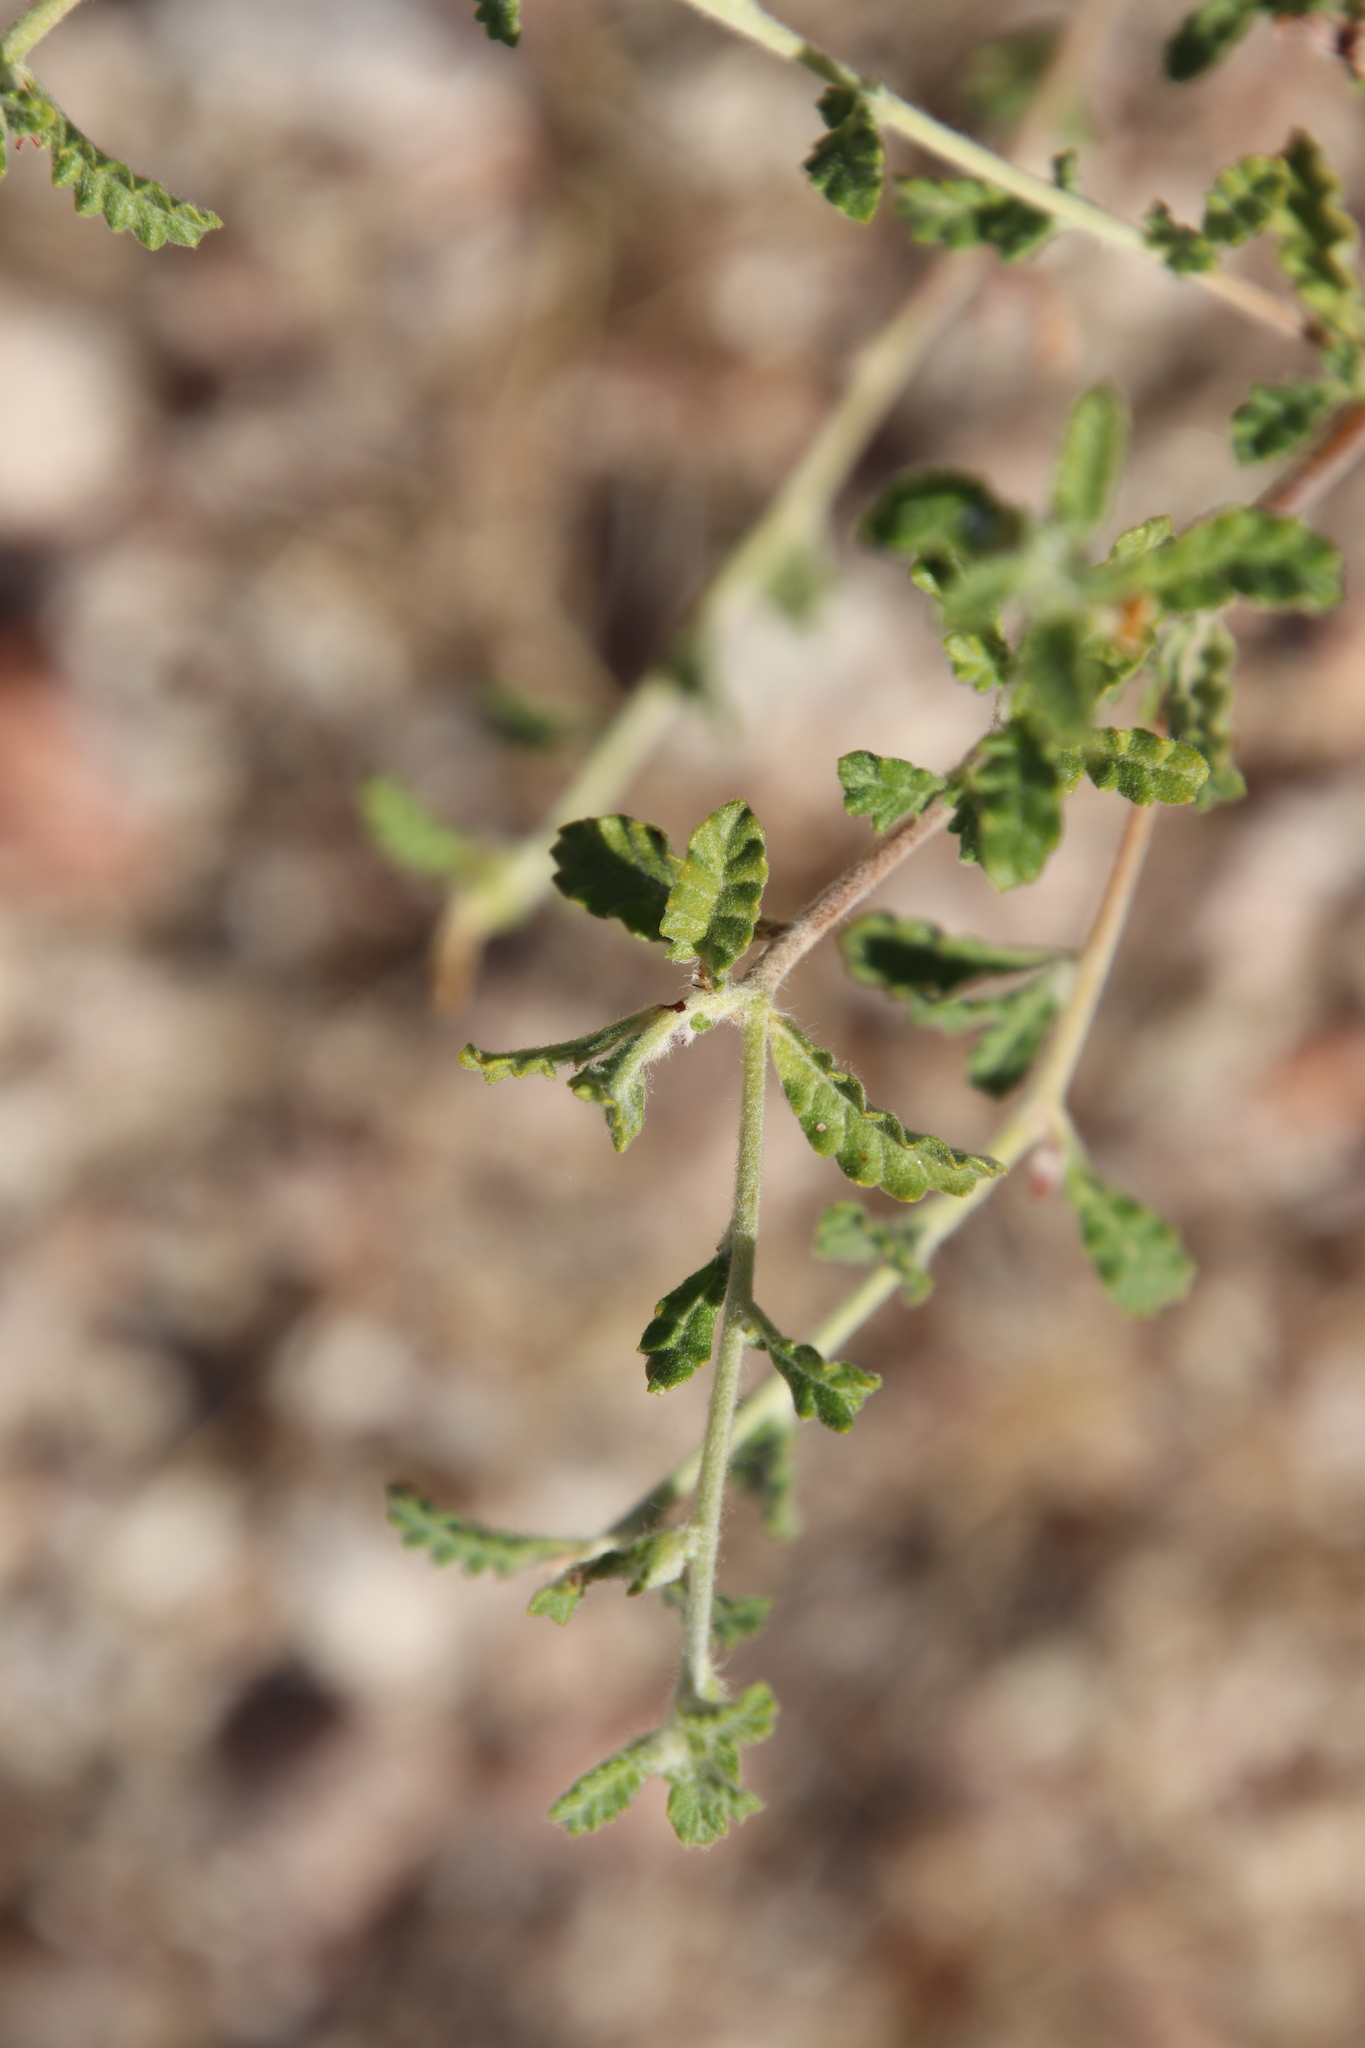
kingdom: Plantae
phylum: Tracheophyta
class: Magnoliopsida
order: Malpighiales
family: Turneraceae
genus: Turnera
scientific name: Turnera diffusa
